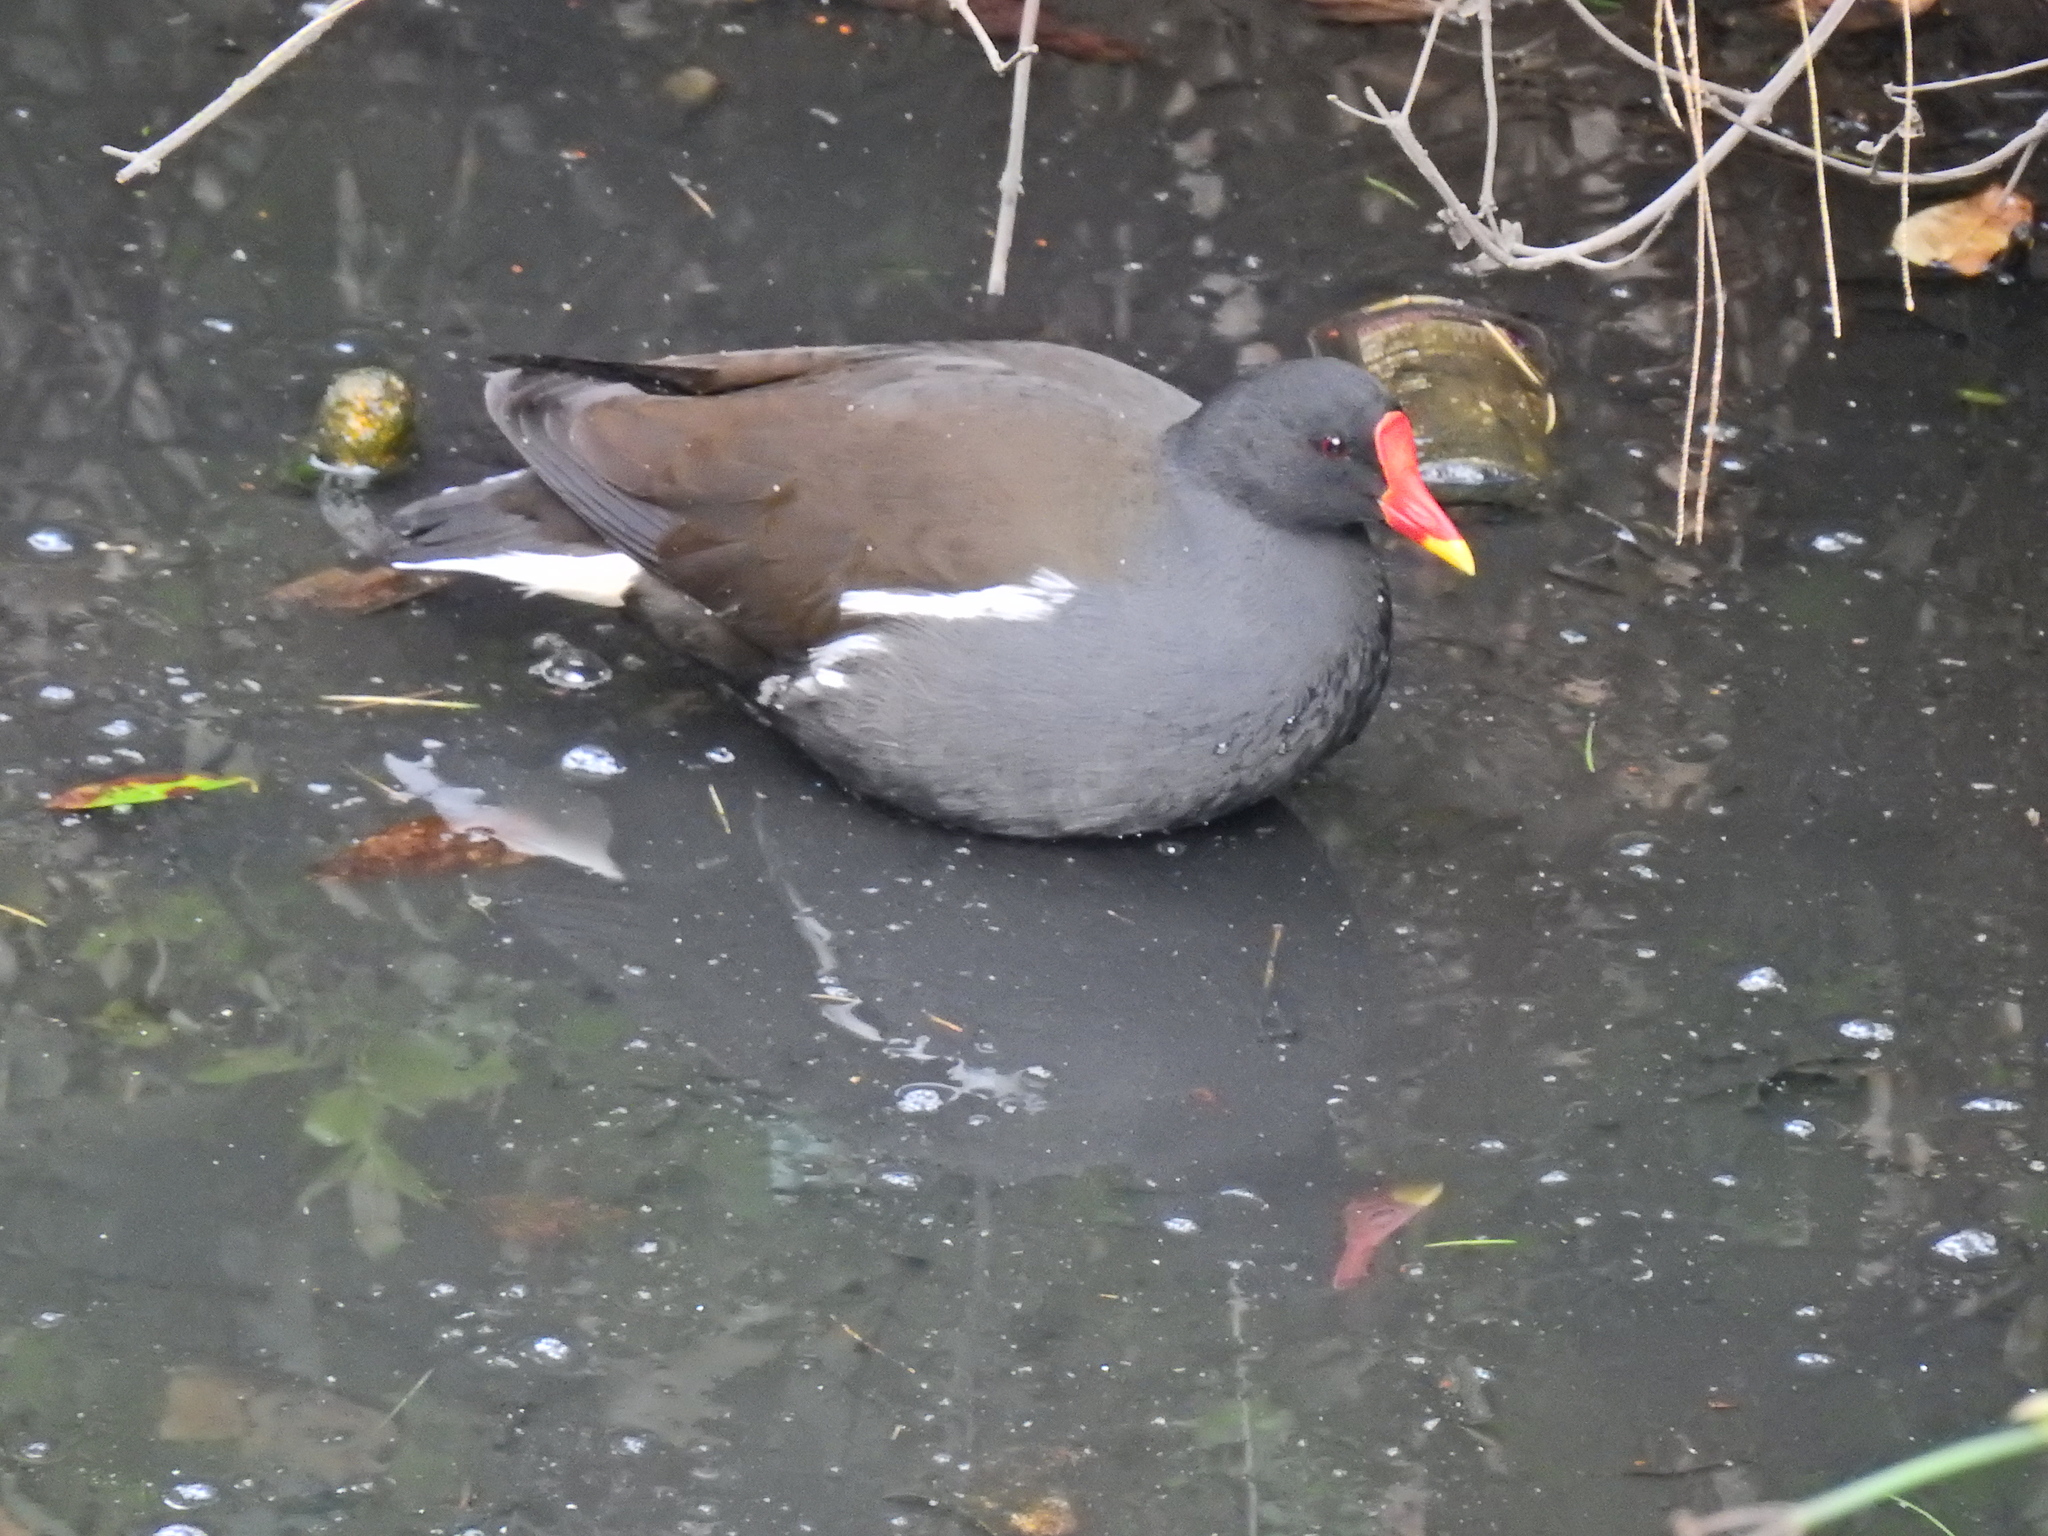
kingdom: Animalia
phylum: Chordata
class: Aves
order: Gruiformes
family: Rallidae
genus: Gallinula
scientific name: Gallinula chloropus
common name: Common moorhen
